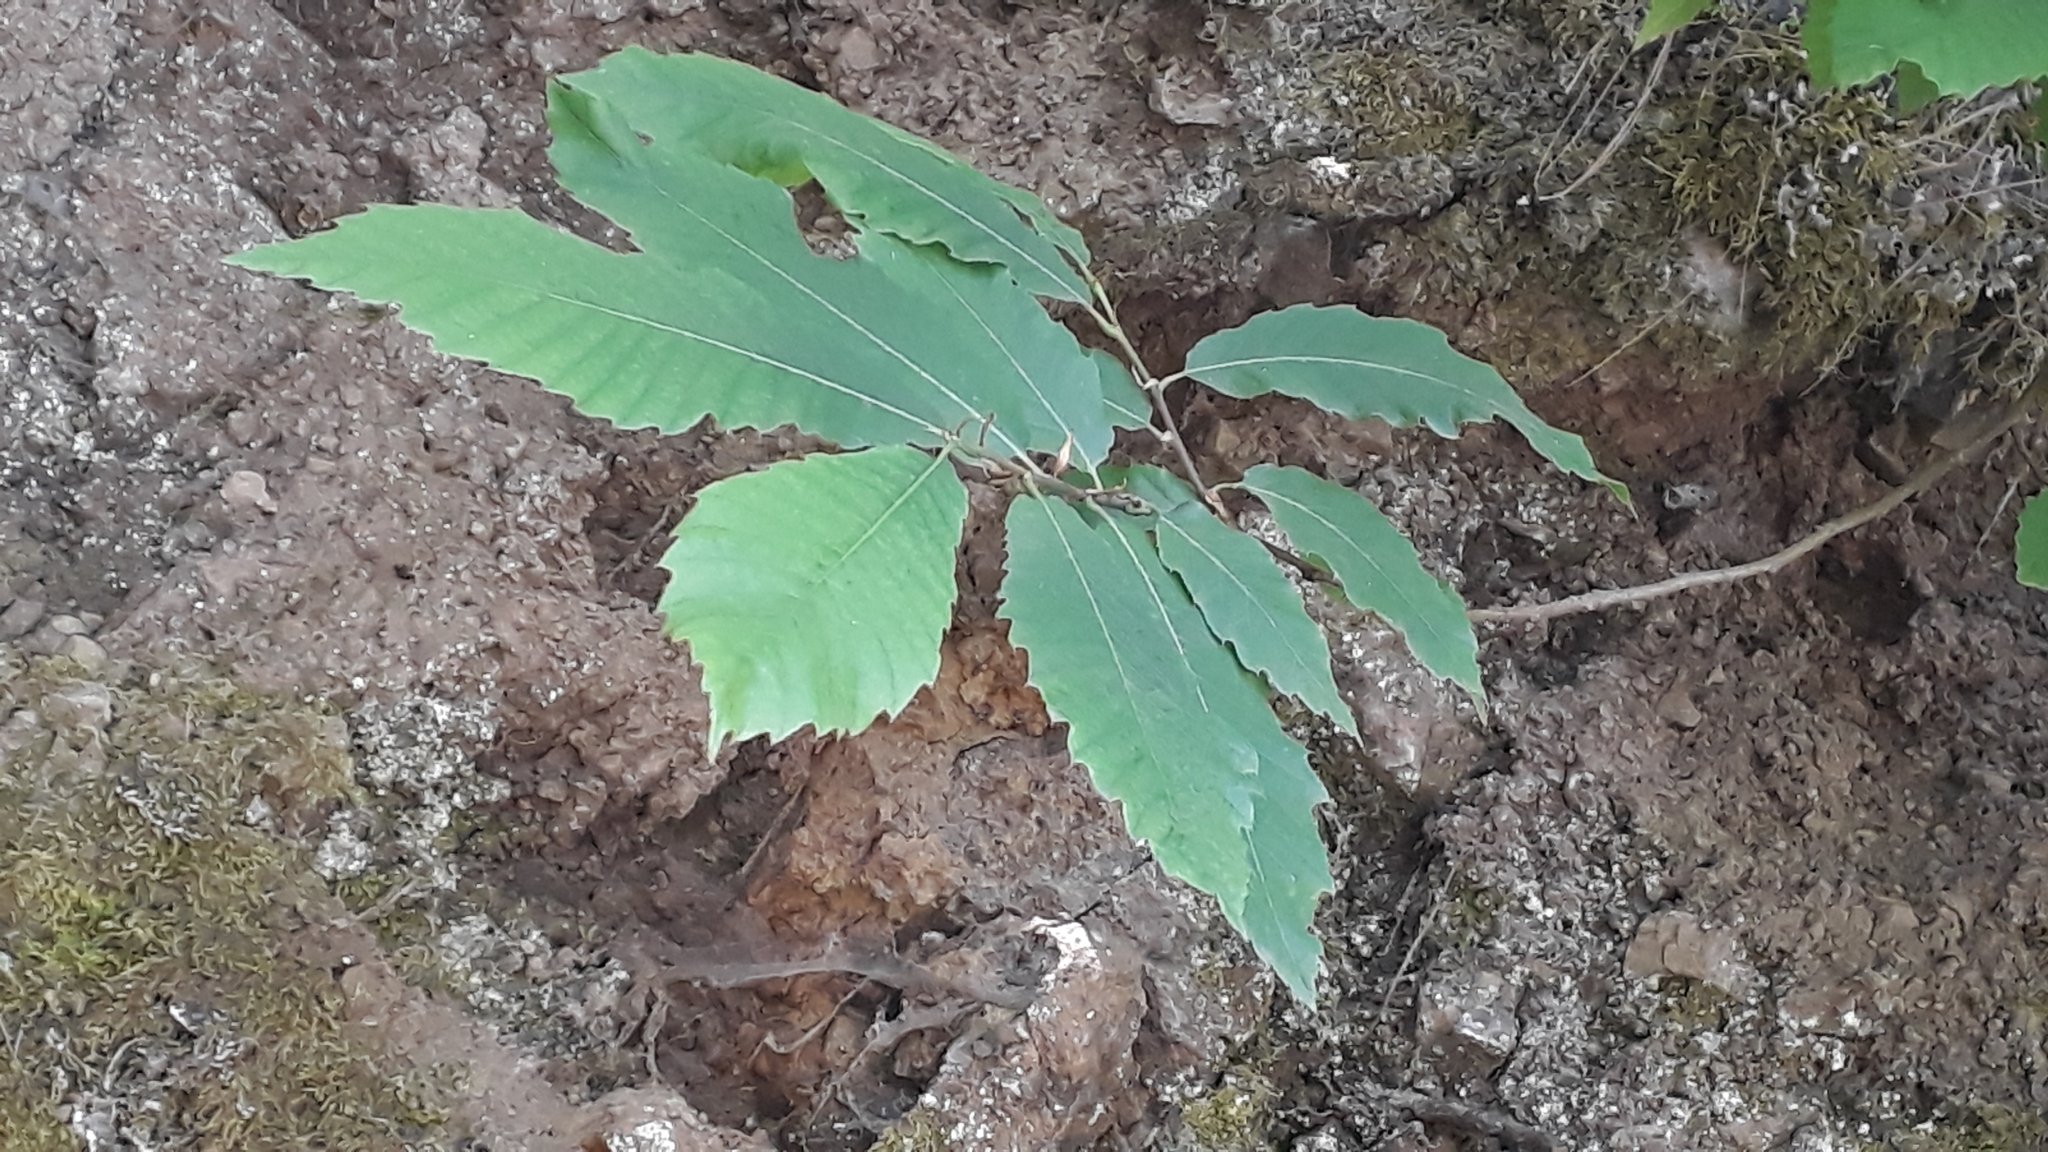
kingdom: Plantae
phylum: Tracheophyta
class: Magnoliopsida
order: Fagales
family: Fagaceae
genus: Castanea
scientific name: Castanea sativa
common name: Sweet chestnut
